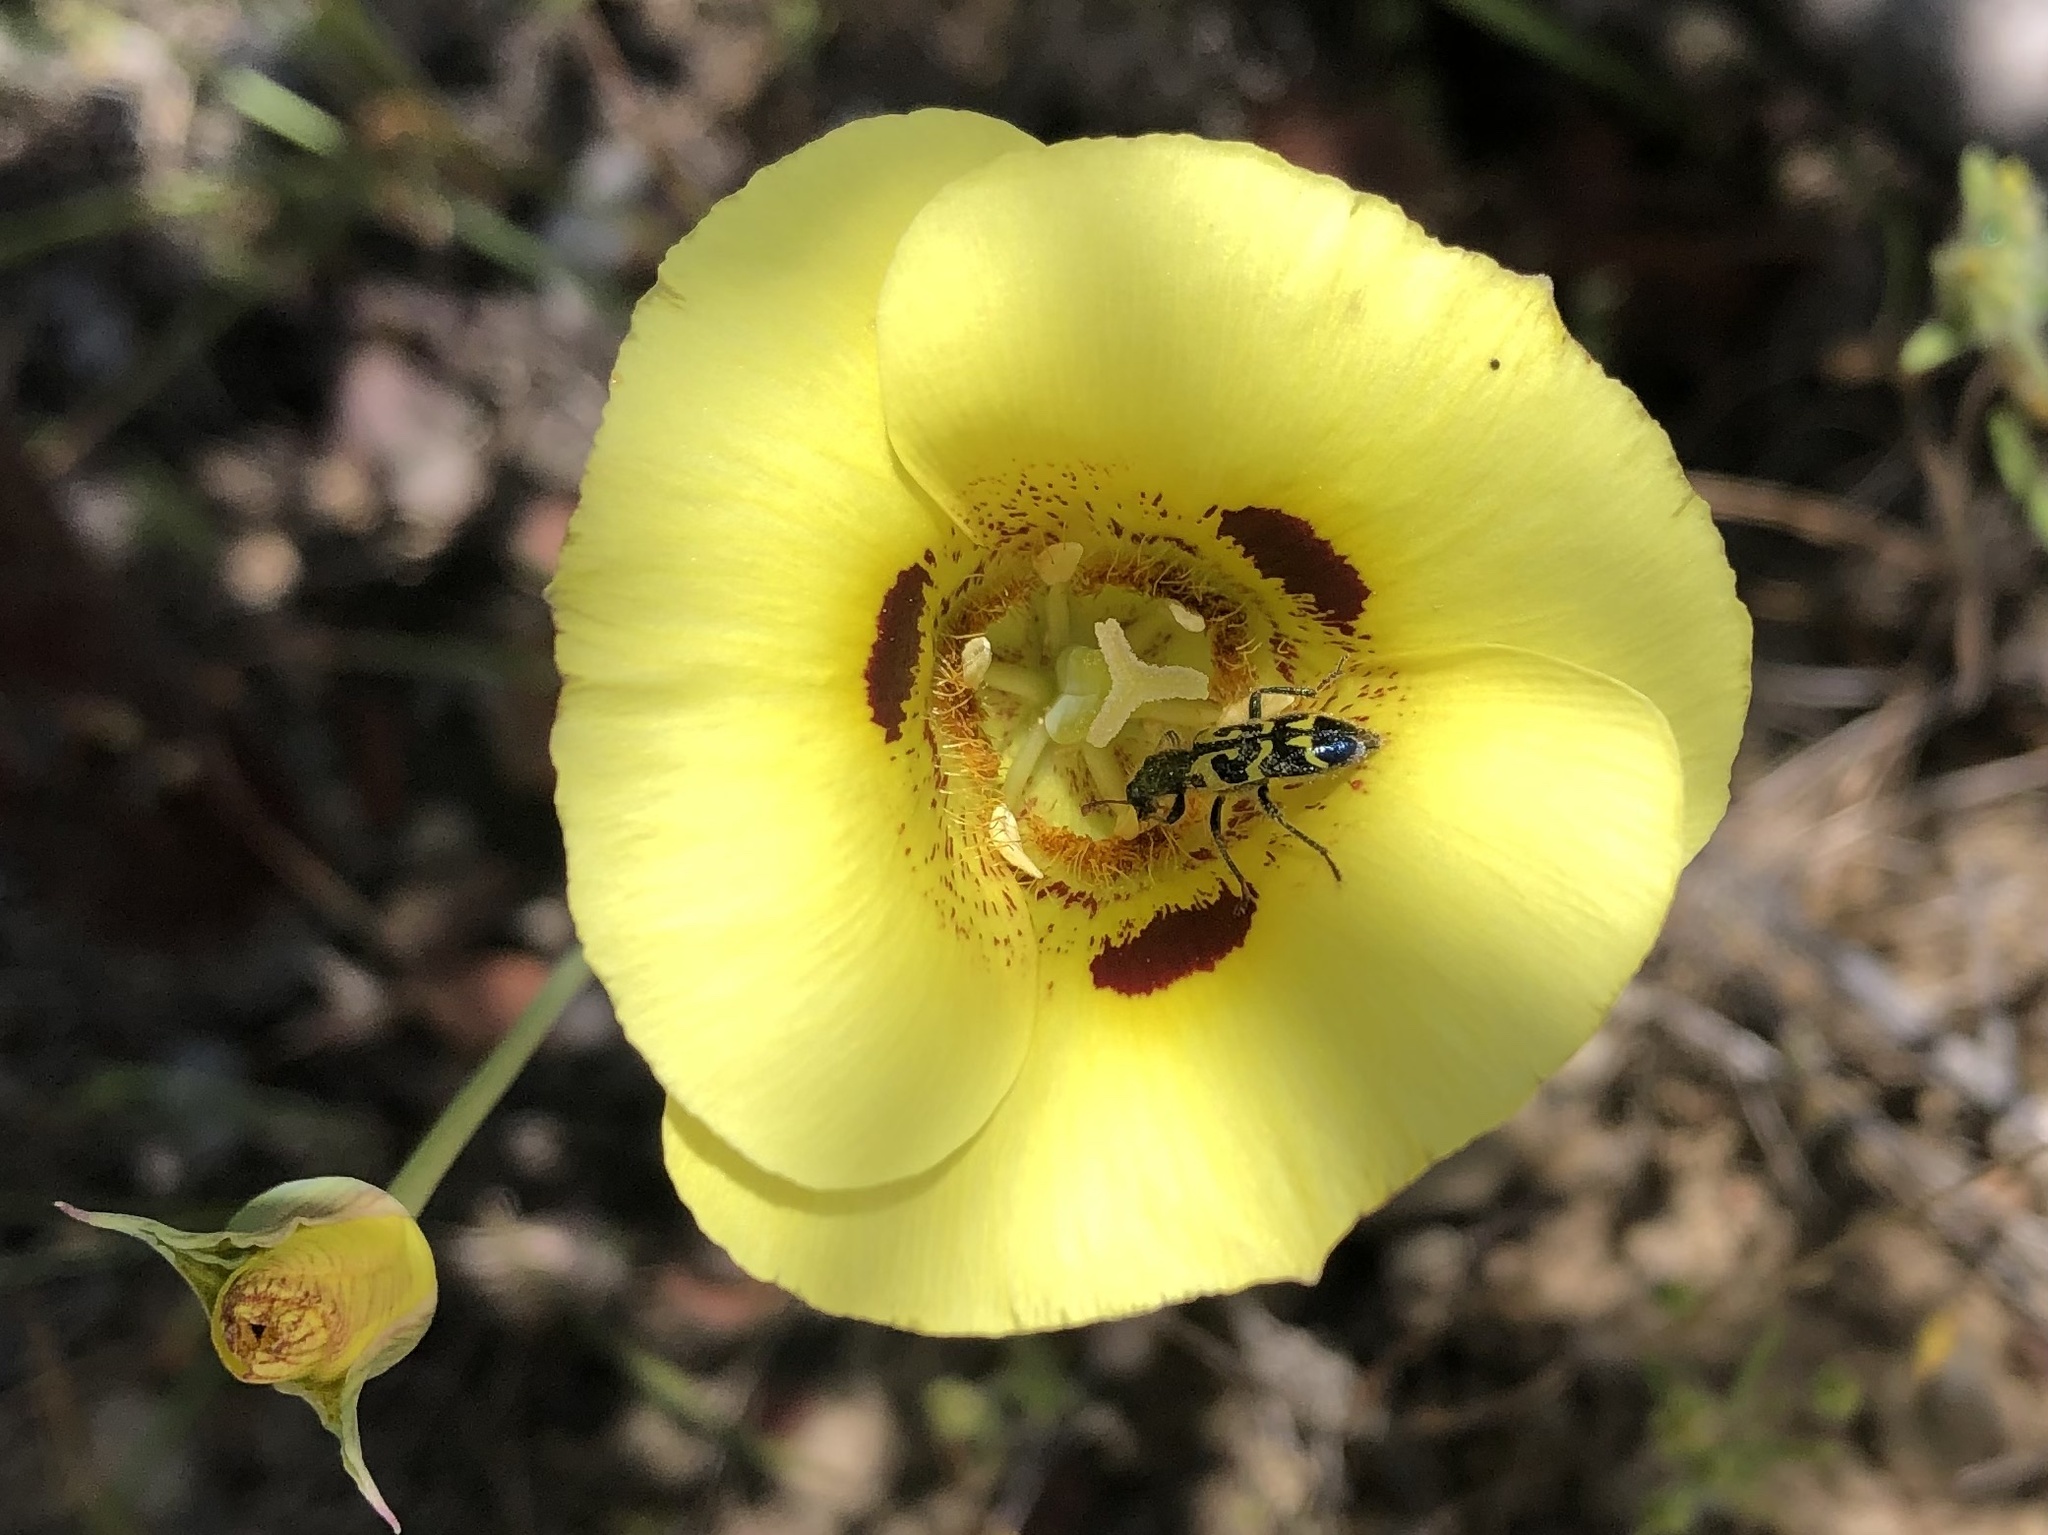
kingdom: Animalia
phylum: Arthropoda
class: Insecta
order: Coleoptera
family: Cleridae
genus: Trichodes
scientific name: Trichodes ornatus
